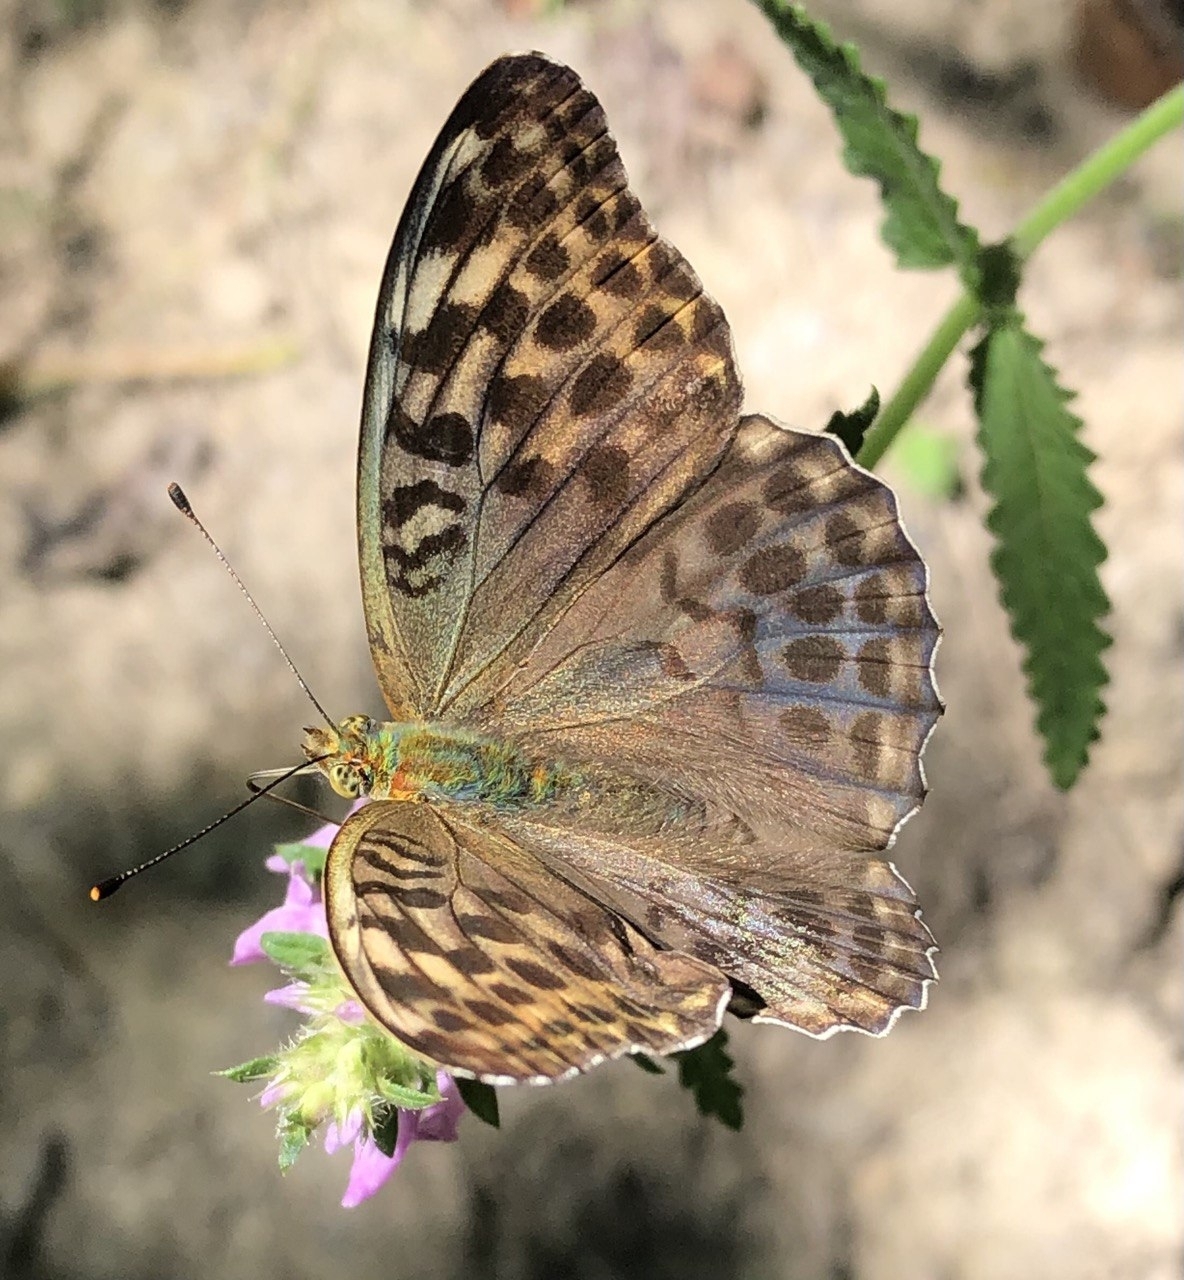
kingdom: Animalia
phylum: Arthropoda
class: Insecta
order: Lepidoptera
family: Nymphalidae
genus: Argynnis
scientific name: Argynnis paphia
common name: Silver-washed fritillary
